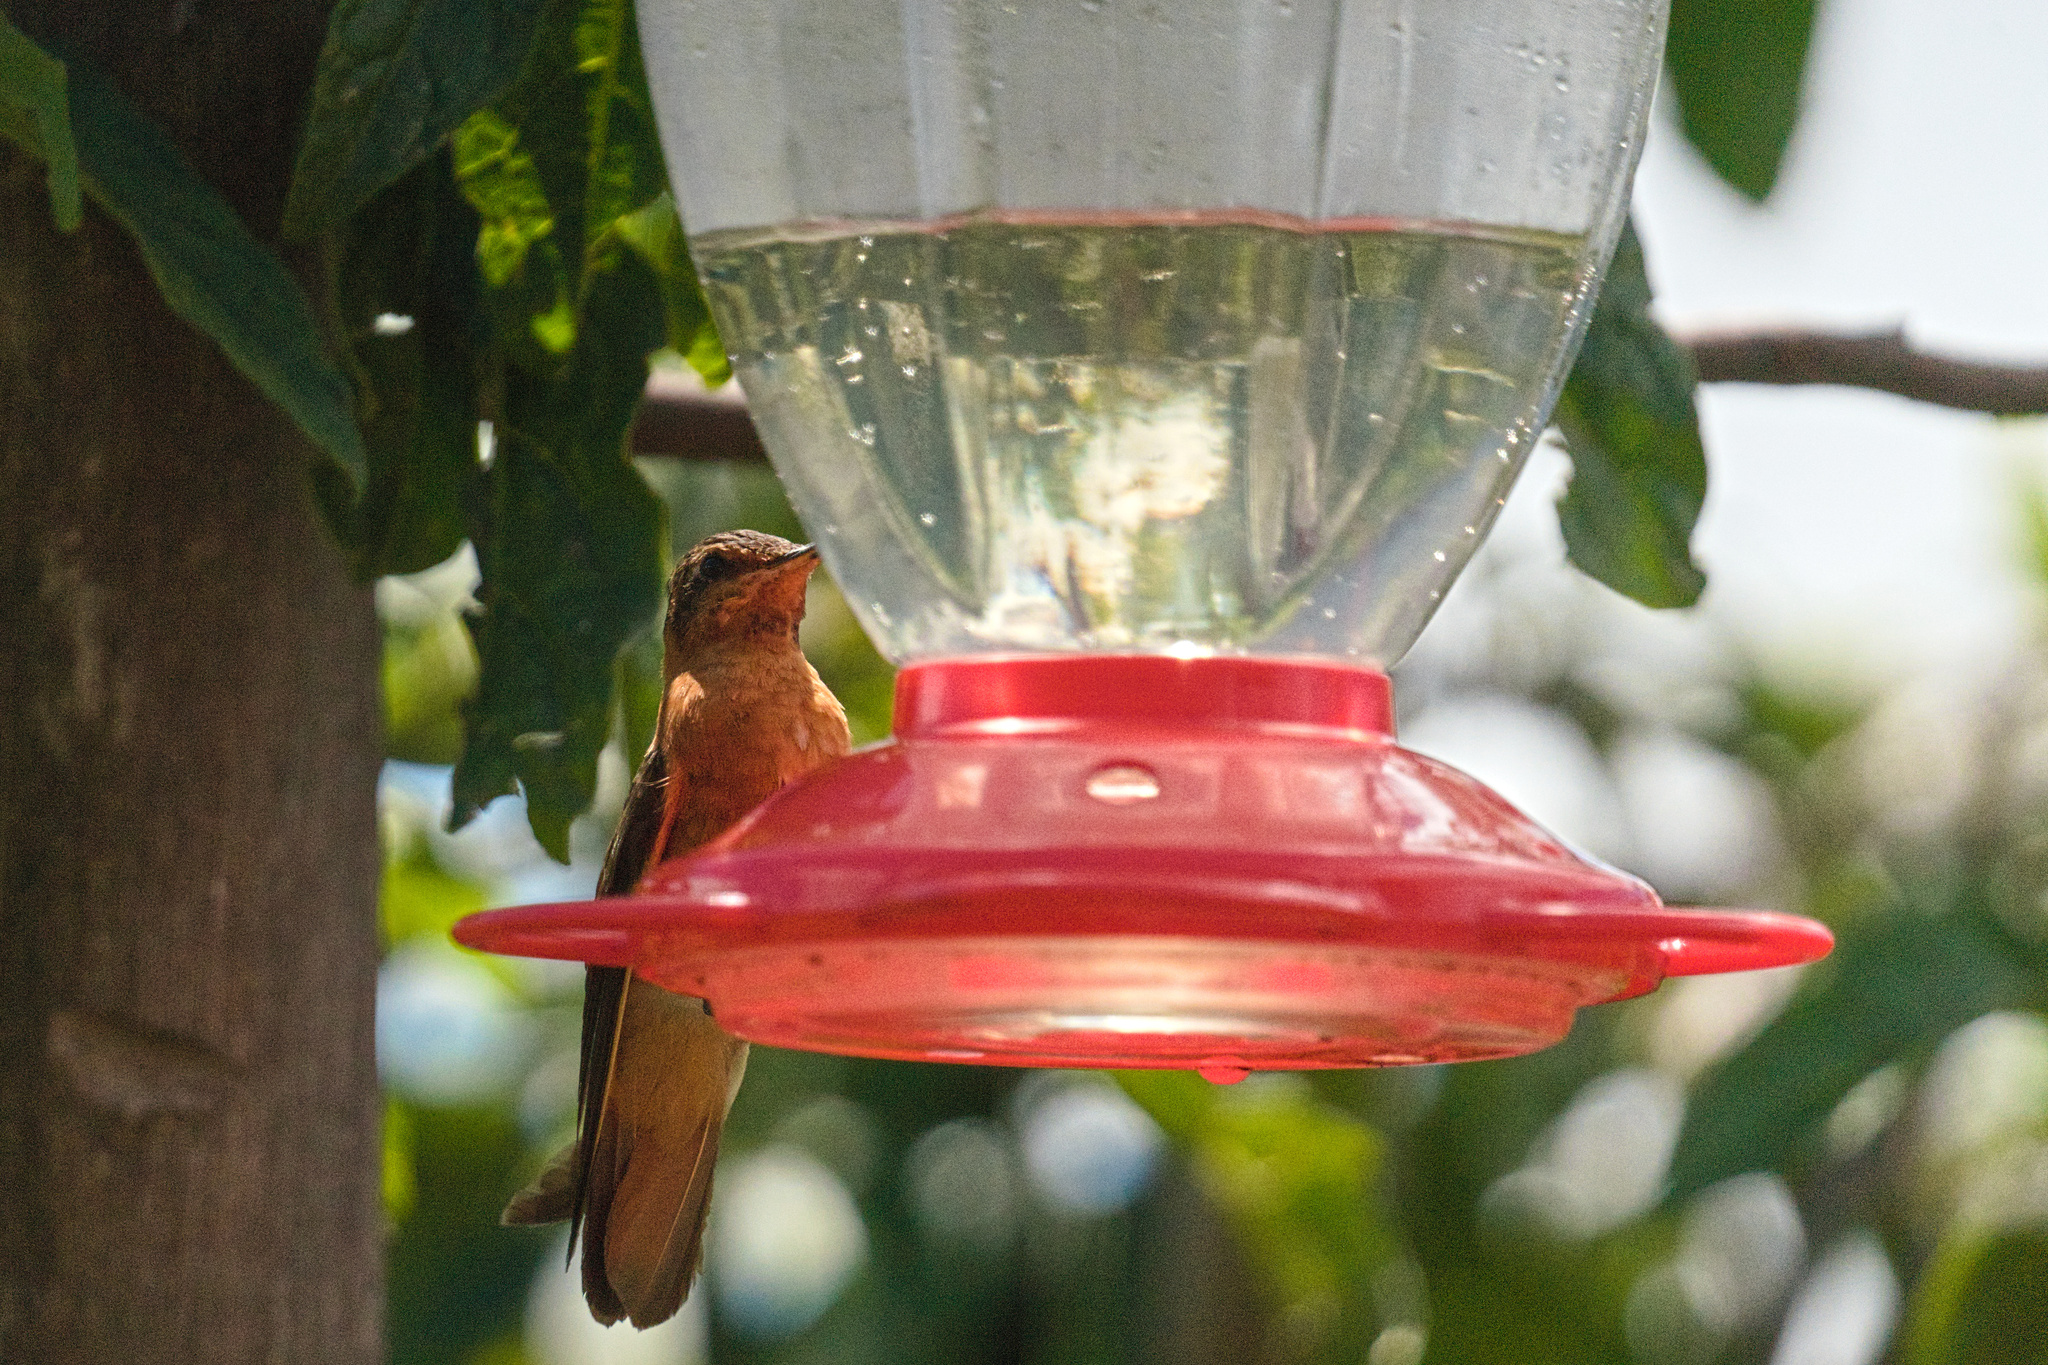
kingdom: Animalia
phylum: Chordata
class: Aves
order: Apodiformes
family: Trochilidae
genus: Aglaeactis
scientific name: Aglaeactis cupripennis
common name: Shining sunbeam
